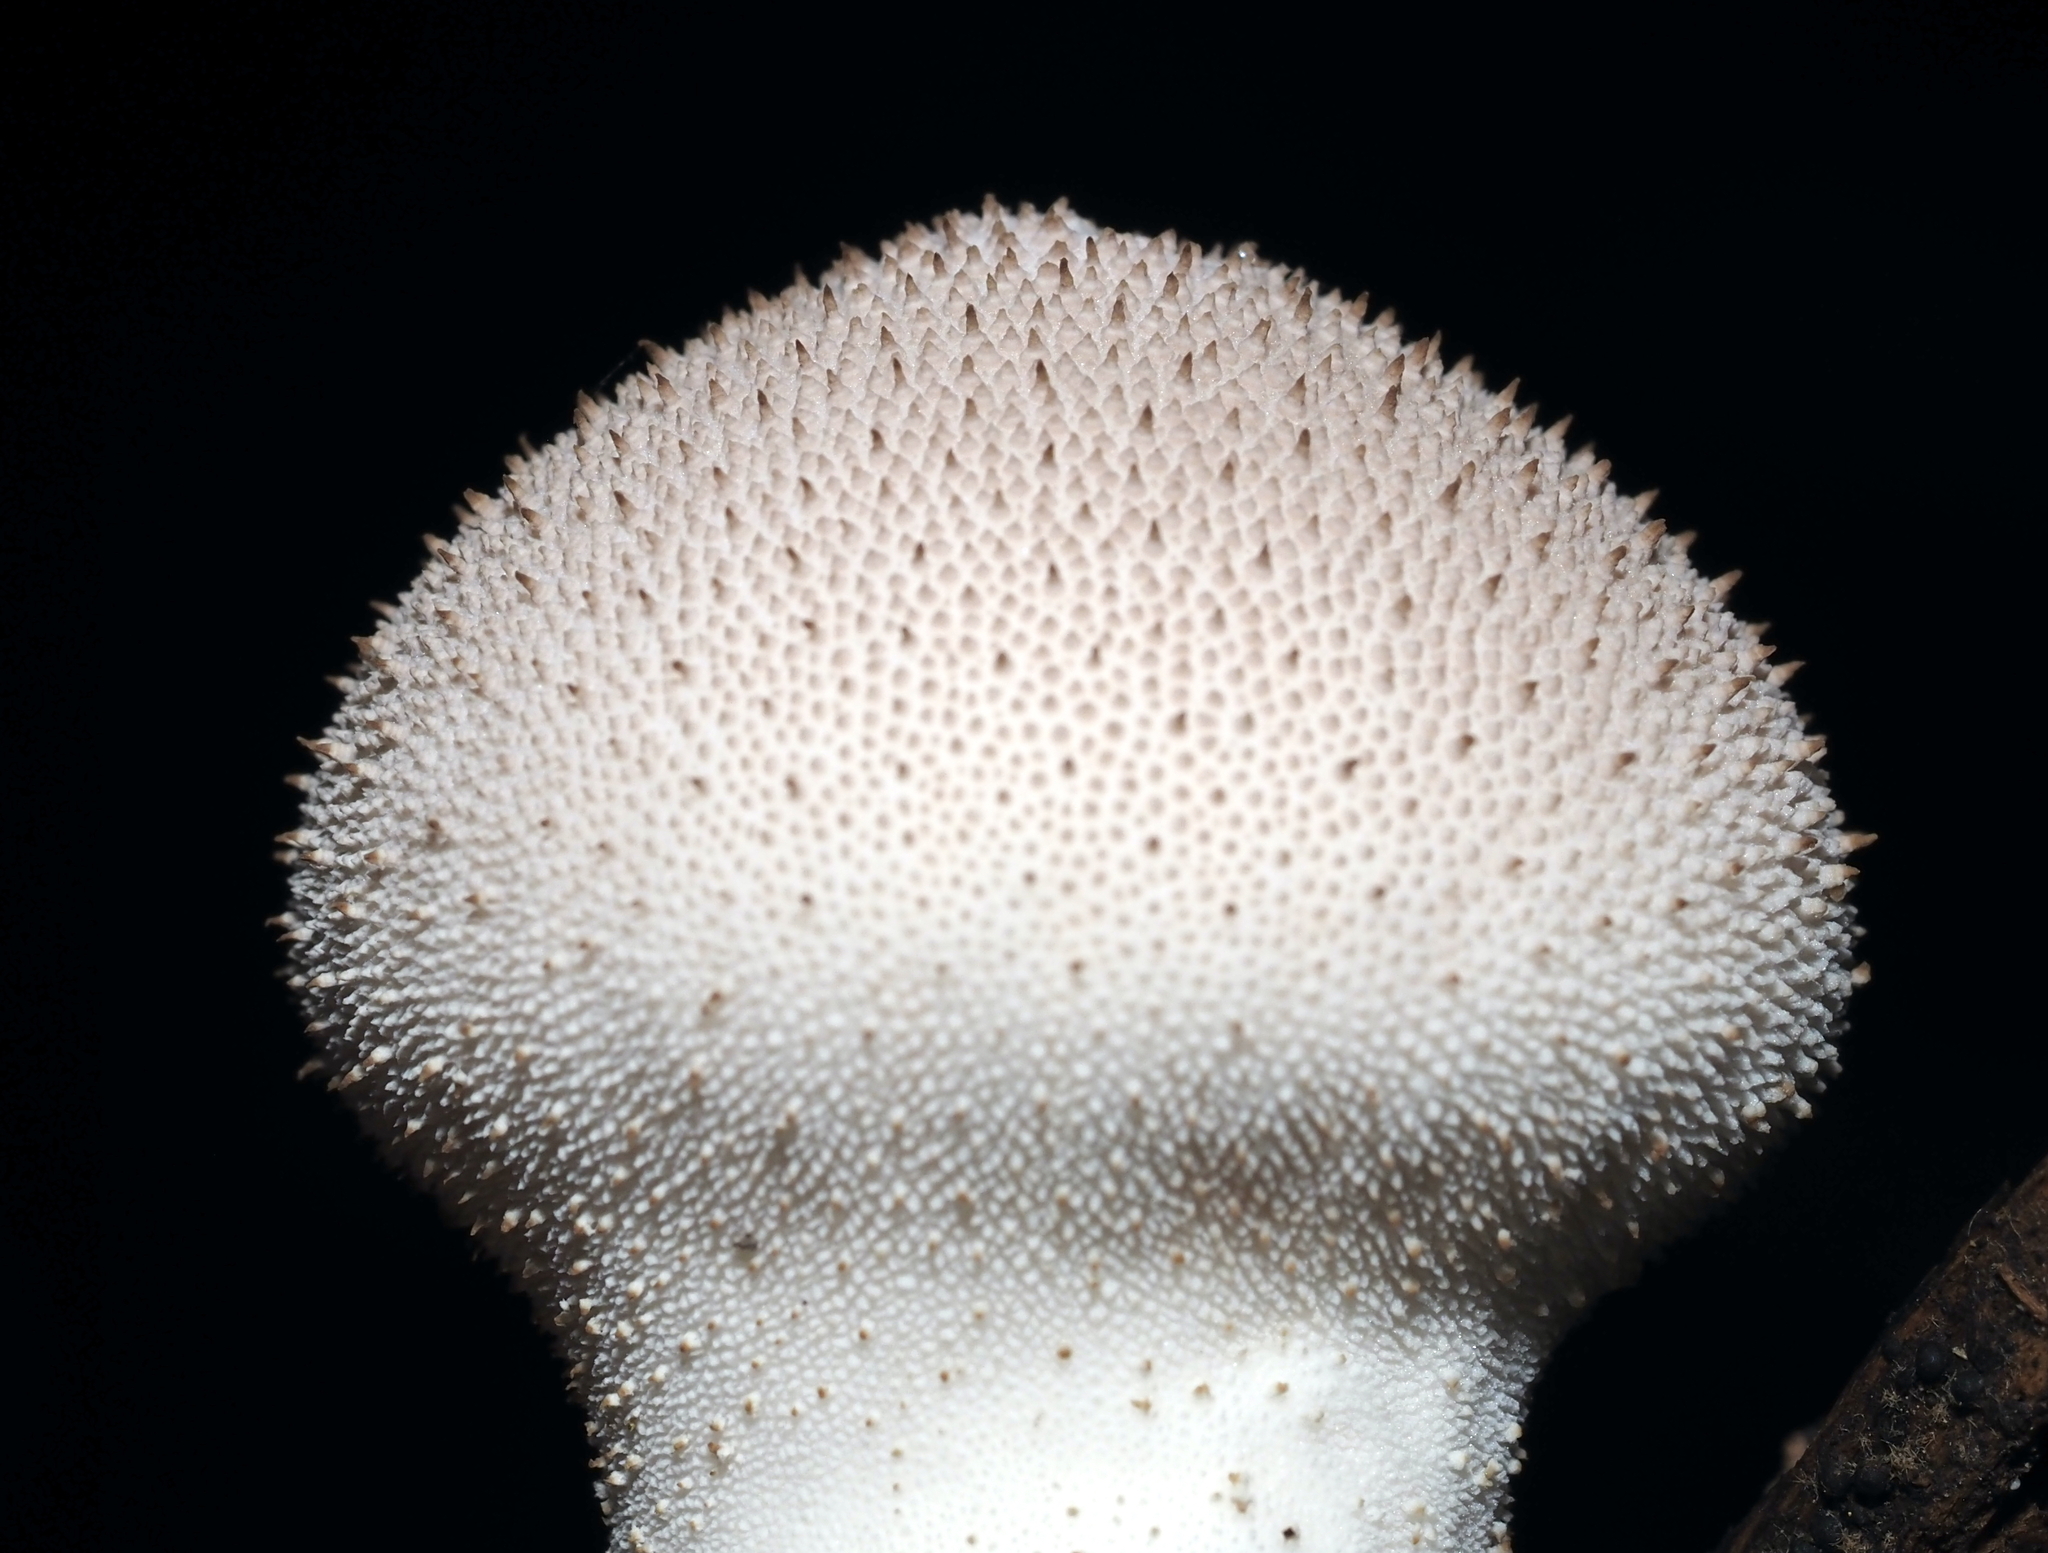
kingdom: Fungi
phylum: Basidiomycota
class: Agaricomycetes
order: Agaricales
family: Lycoperdaceae
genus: Lycoperdon
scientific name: Lycoperdon perlatum
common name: Common puffball
